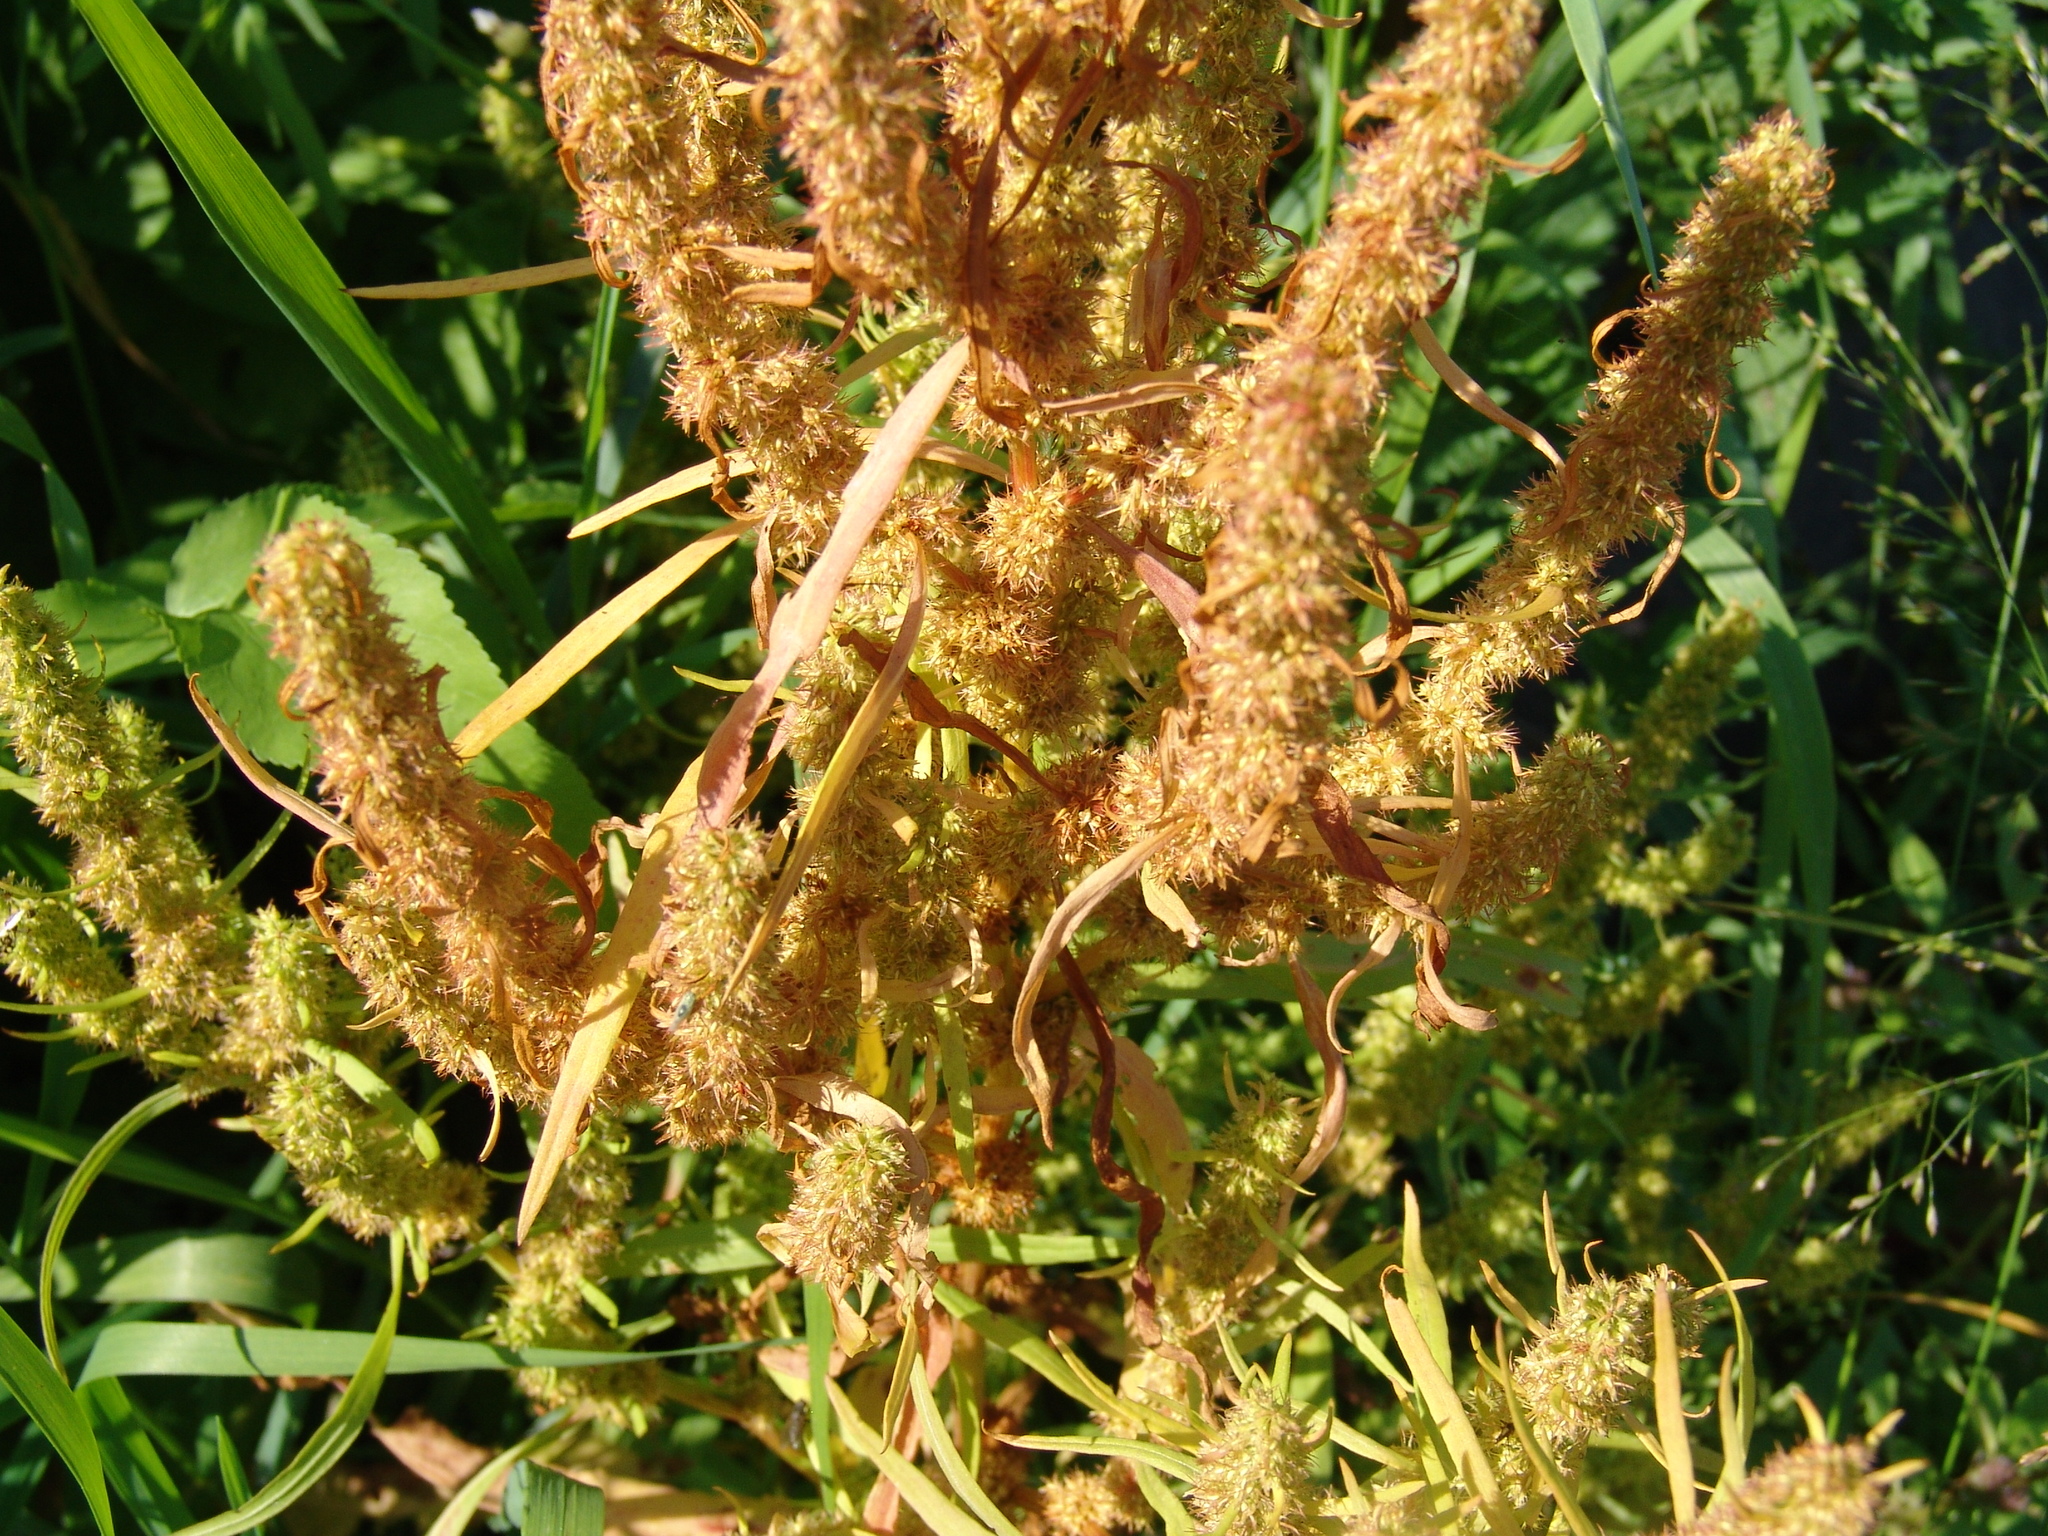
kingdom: Plantae
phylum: Tracheophyta
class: Magnoliopsida
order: Caryophyllales
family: Polygonaceae
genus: Rumex
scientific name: Rumex maritimus
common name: Golden dock
